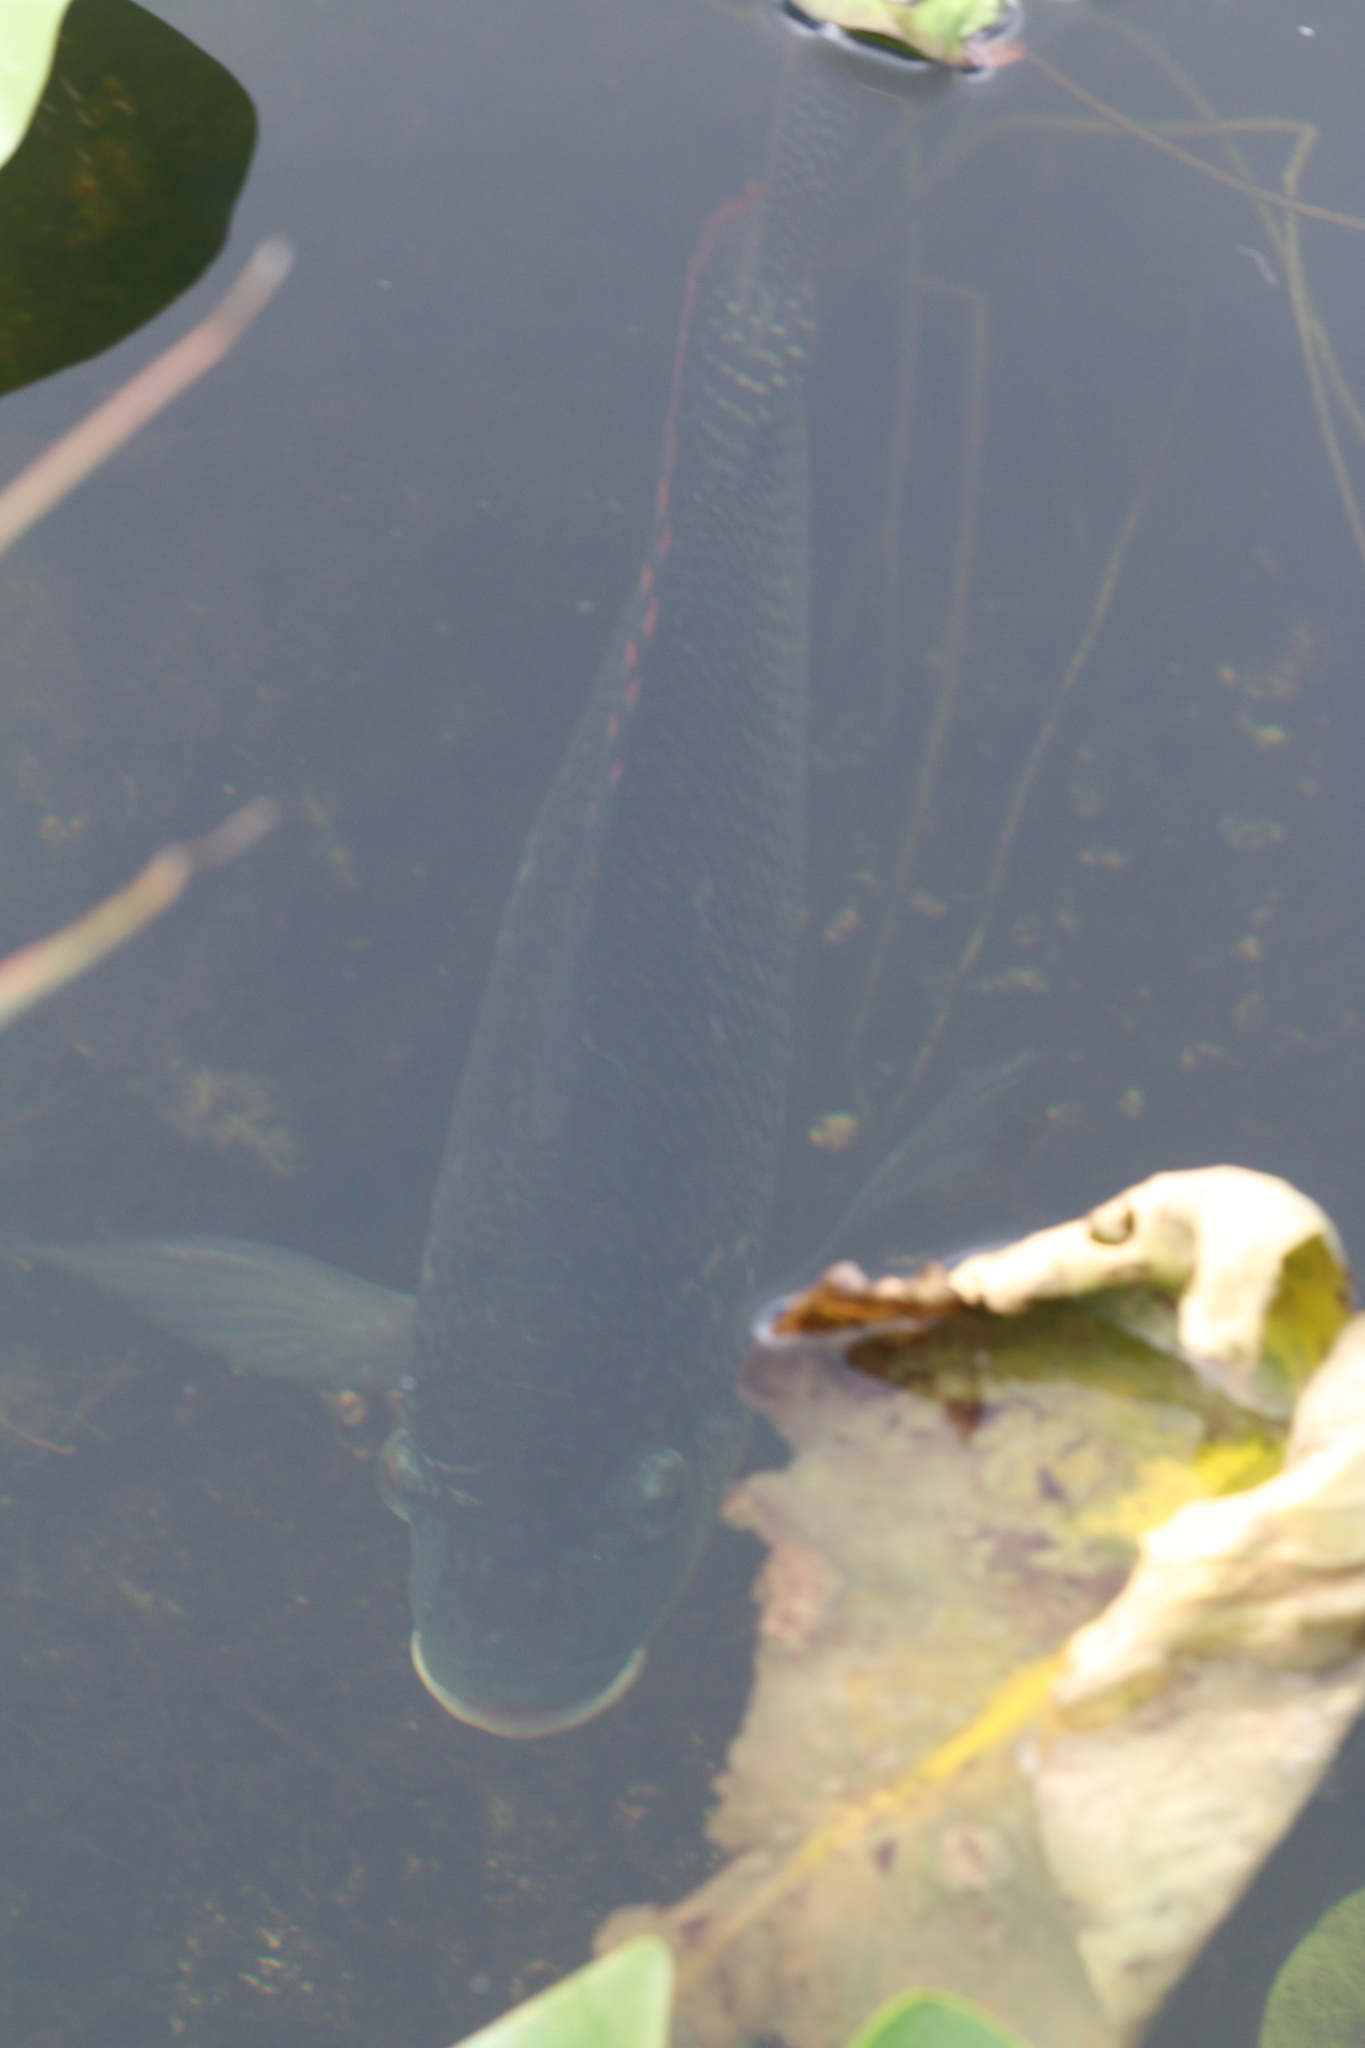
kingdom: Animalia
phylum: Chordata
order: Perciformes
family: Cichlidae
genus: Oreochromis
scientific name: Oreochromis aureus
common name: Blue tilapia
